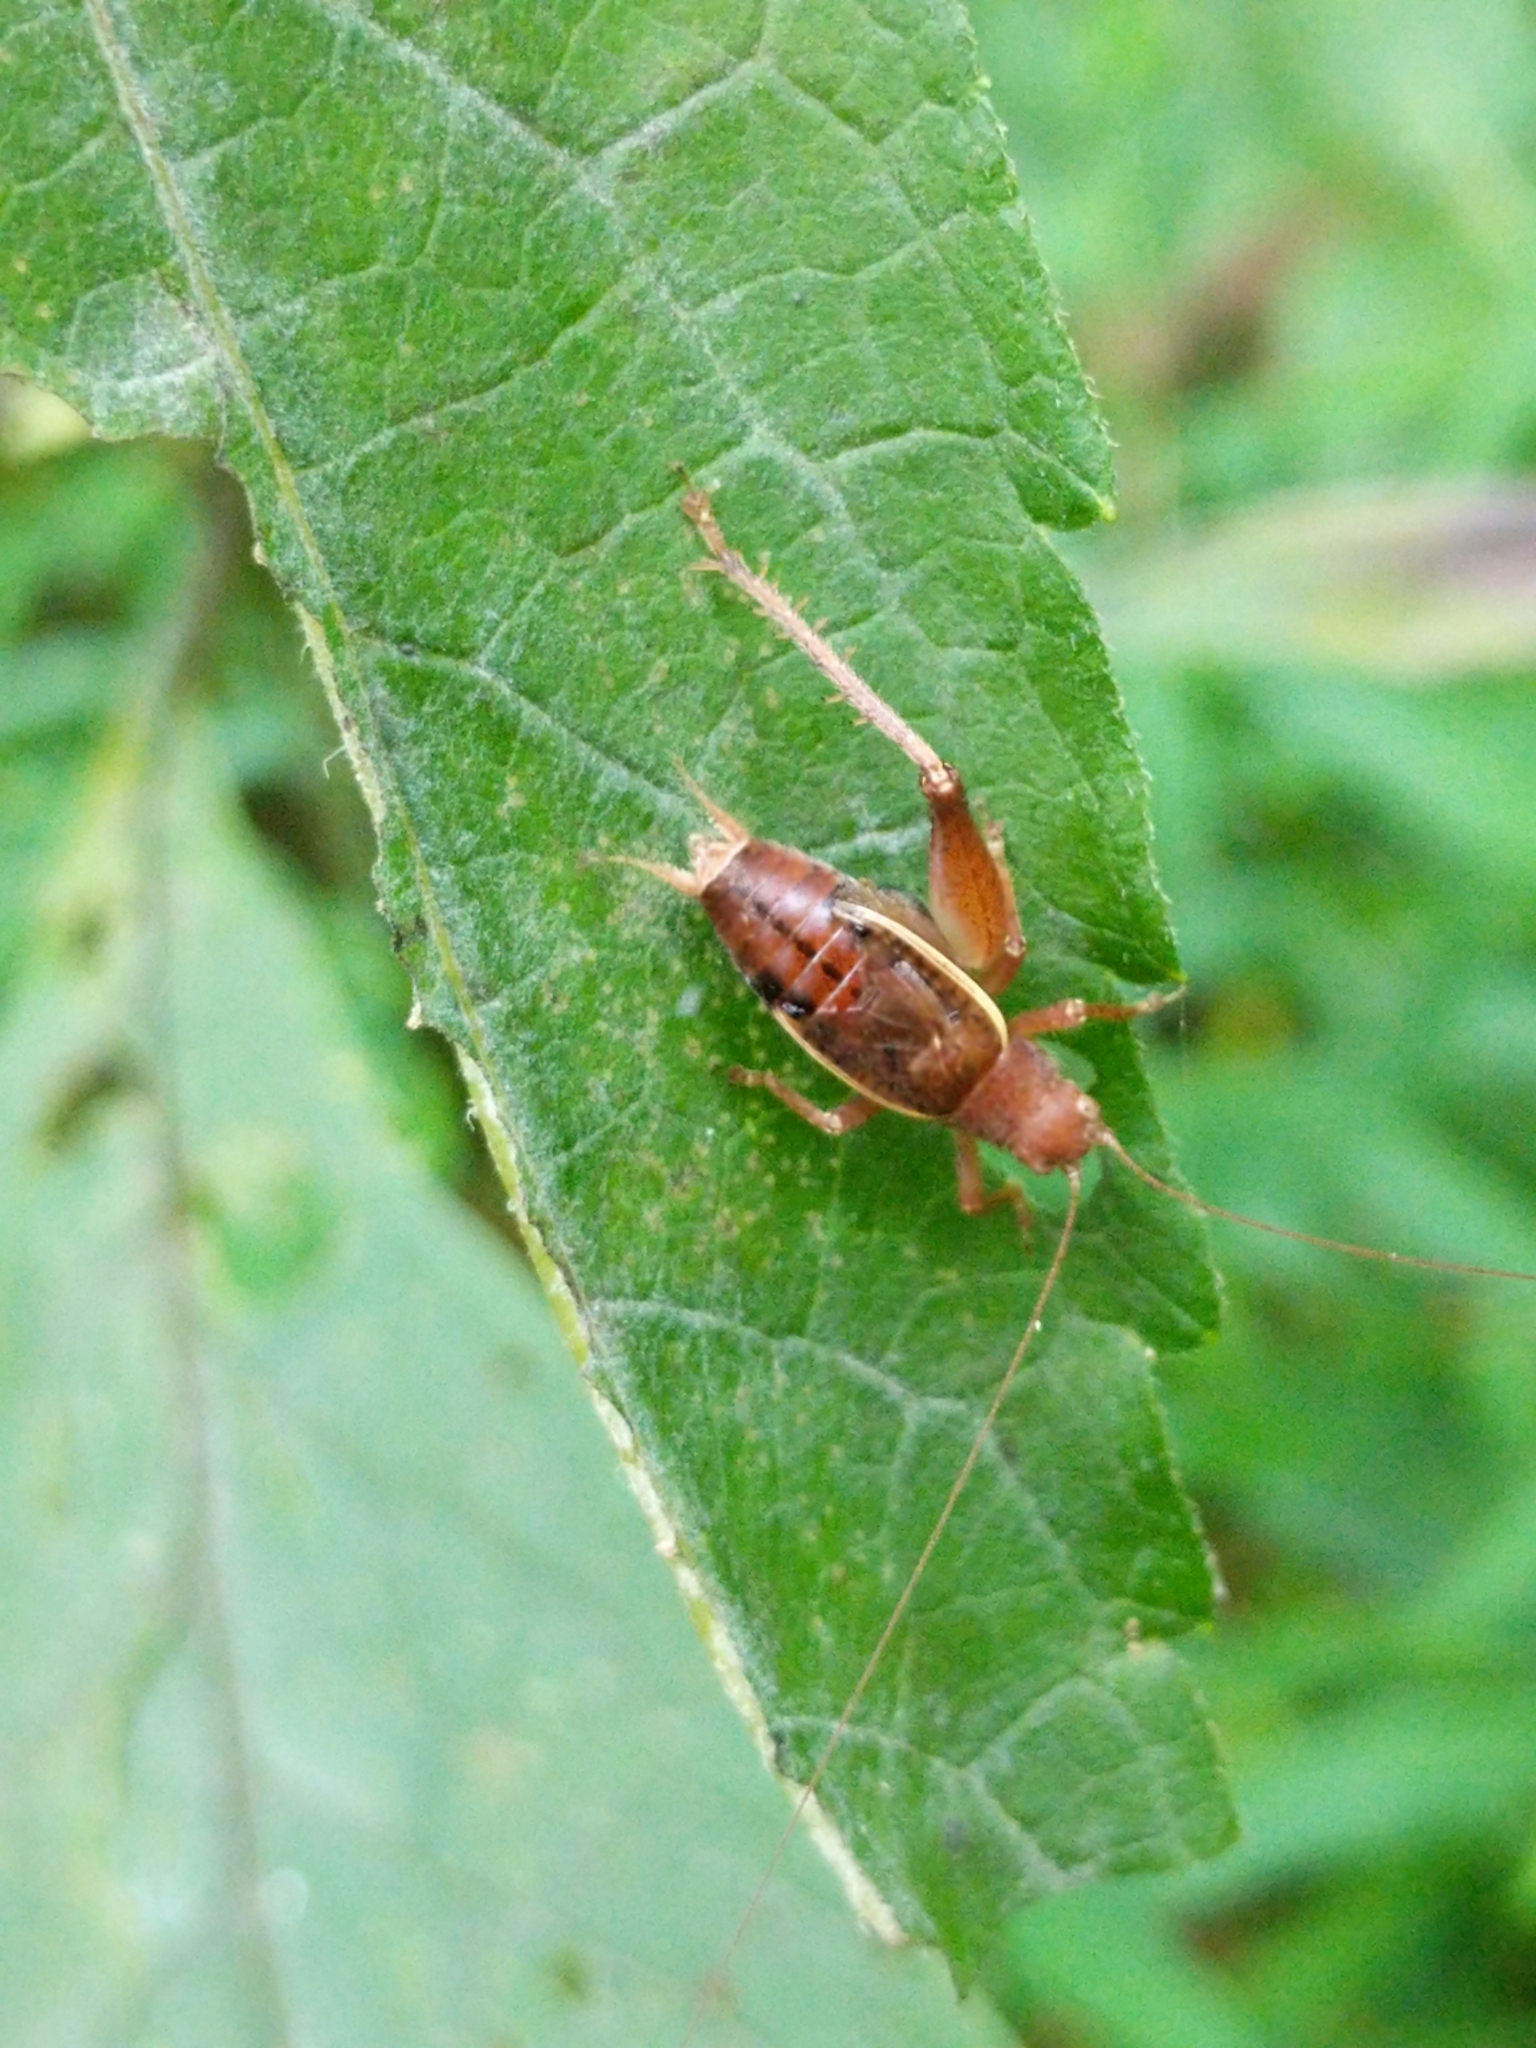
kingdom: Animalia
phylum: Arthropoda
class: Insecta
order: Orthoptera
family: Gryllidae
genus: Hapithus
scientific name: Hapithus agitator
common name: Restless bush cricket
